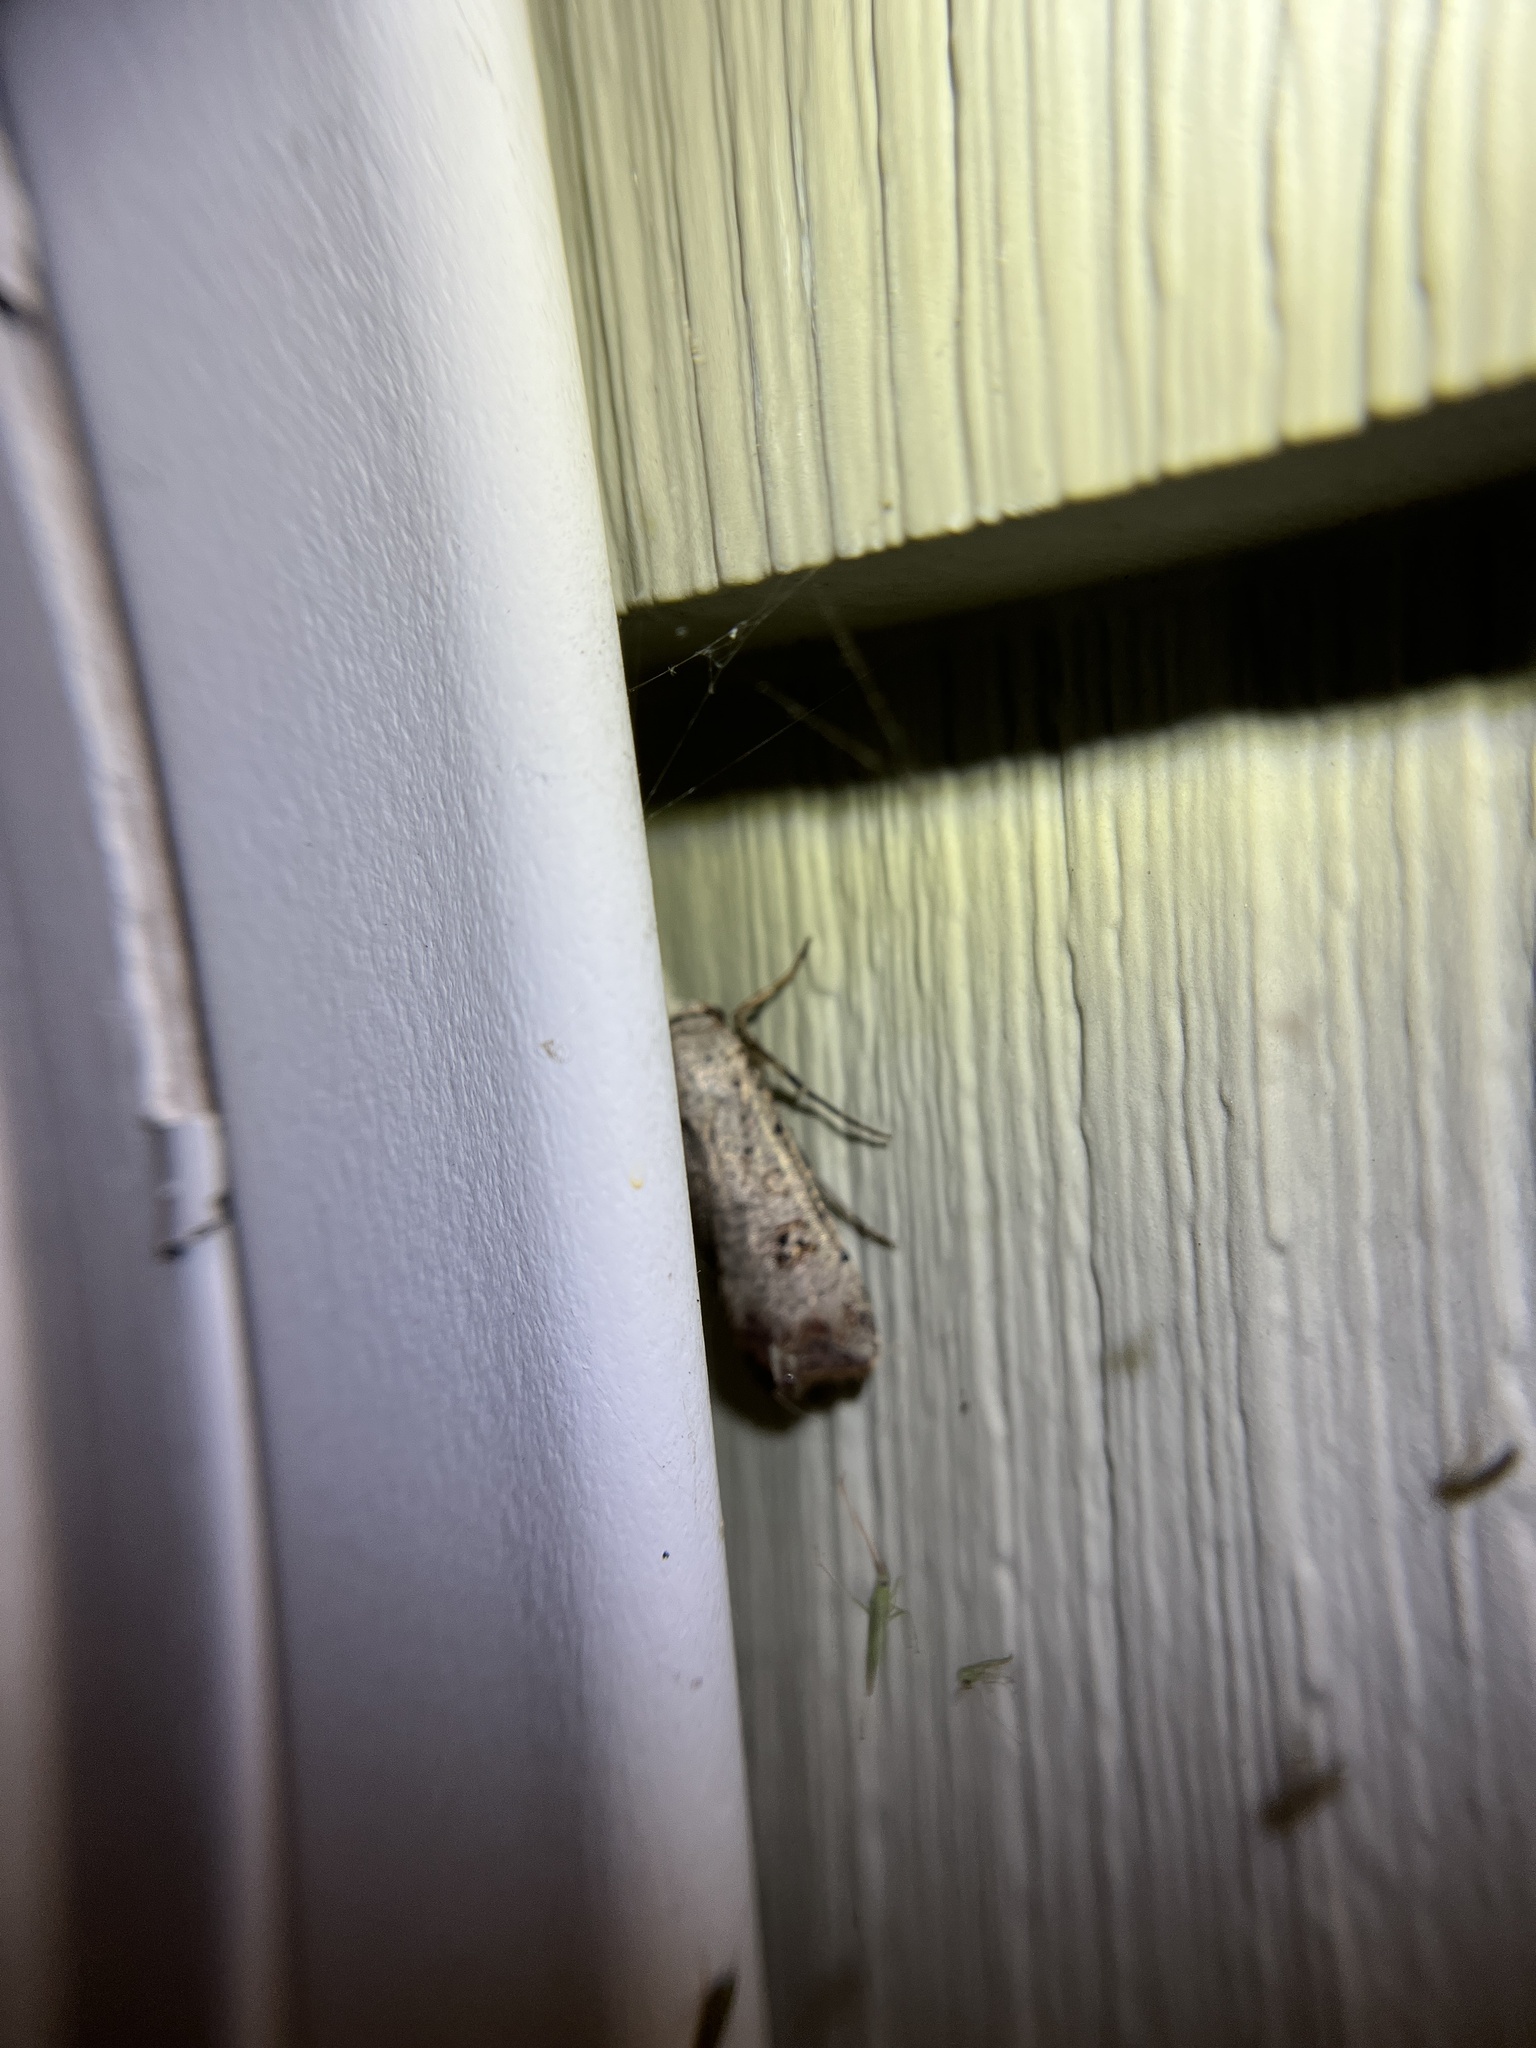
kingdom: Animalia
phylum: Arthropoda
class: Insecta
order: Lepidoptera
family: Noctuidae
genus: Anicla
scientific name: Anicla infecta
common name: Green cutworm
